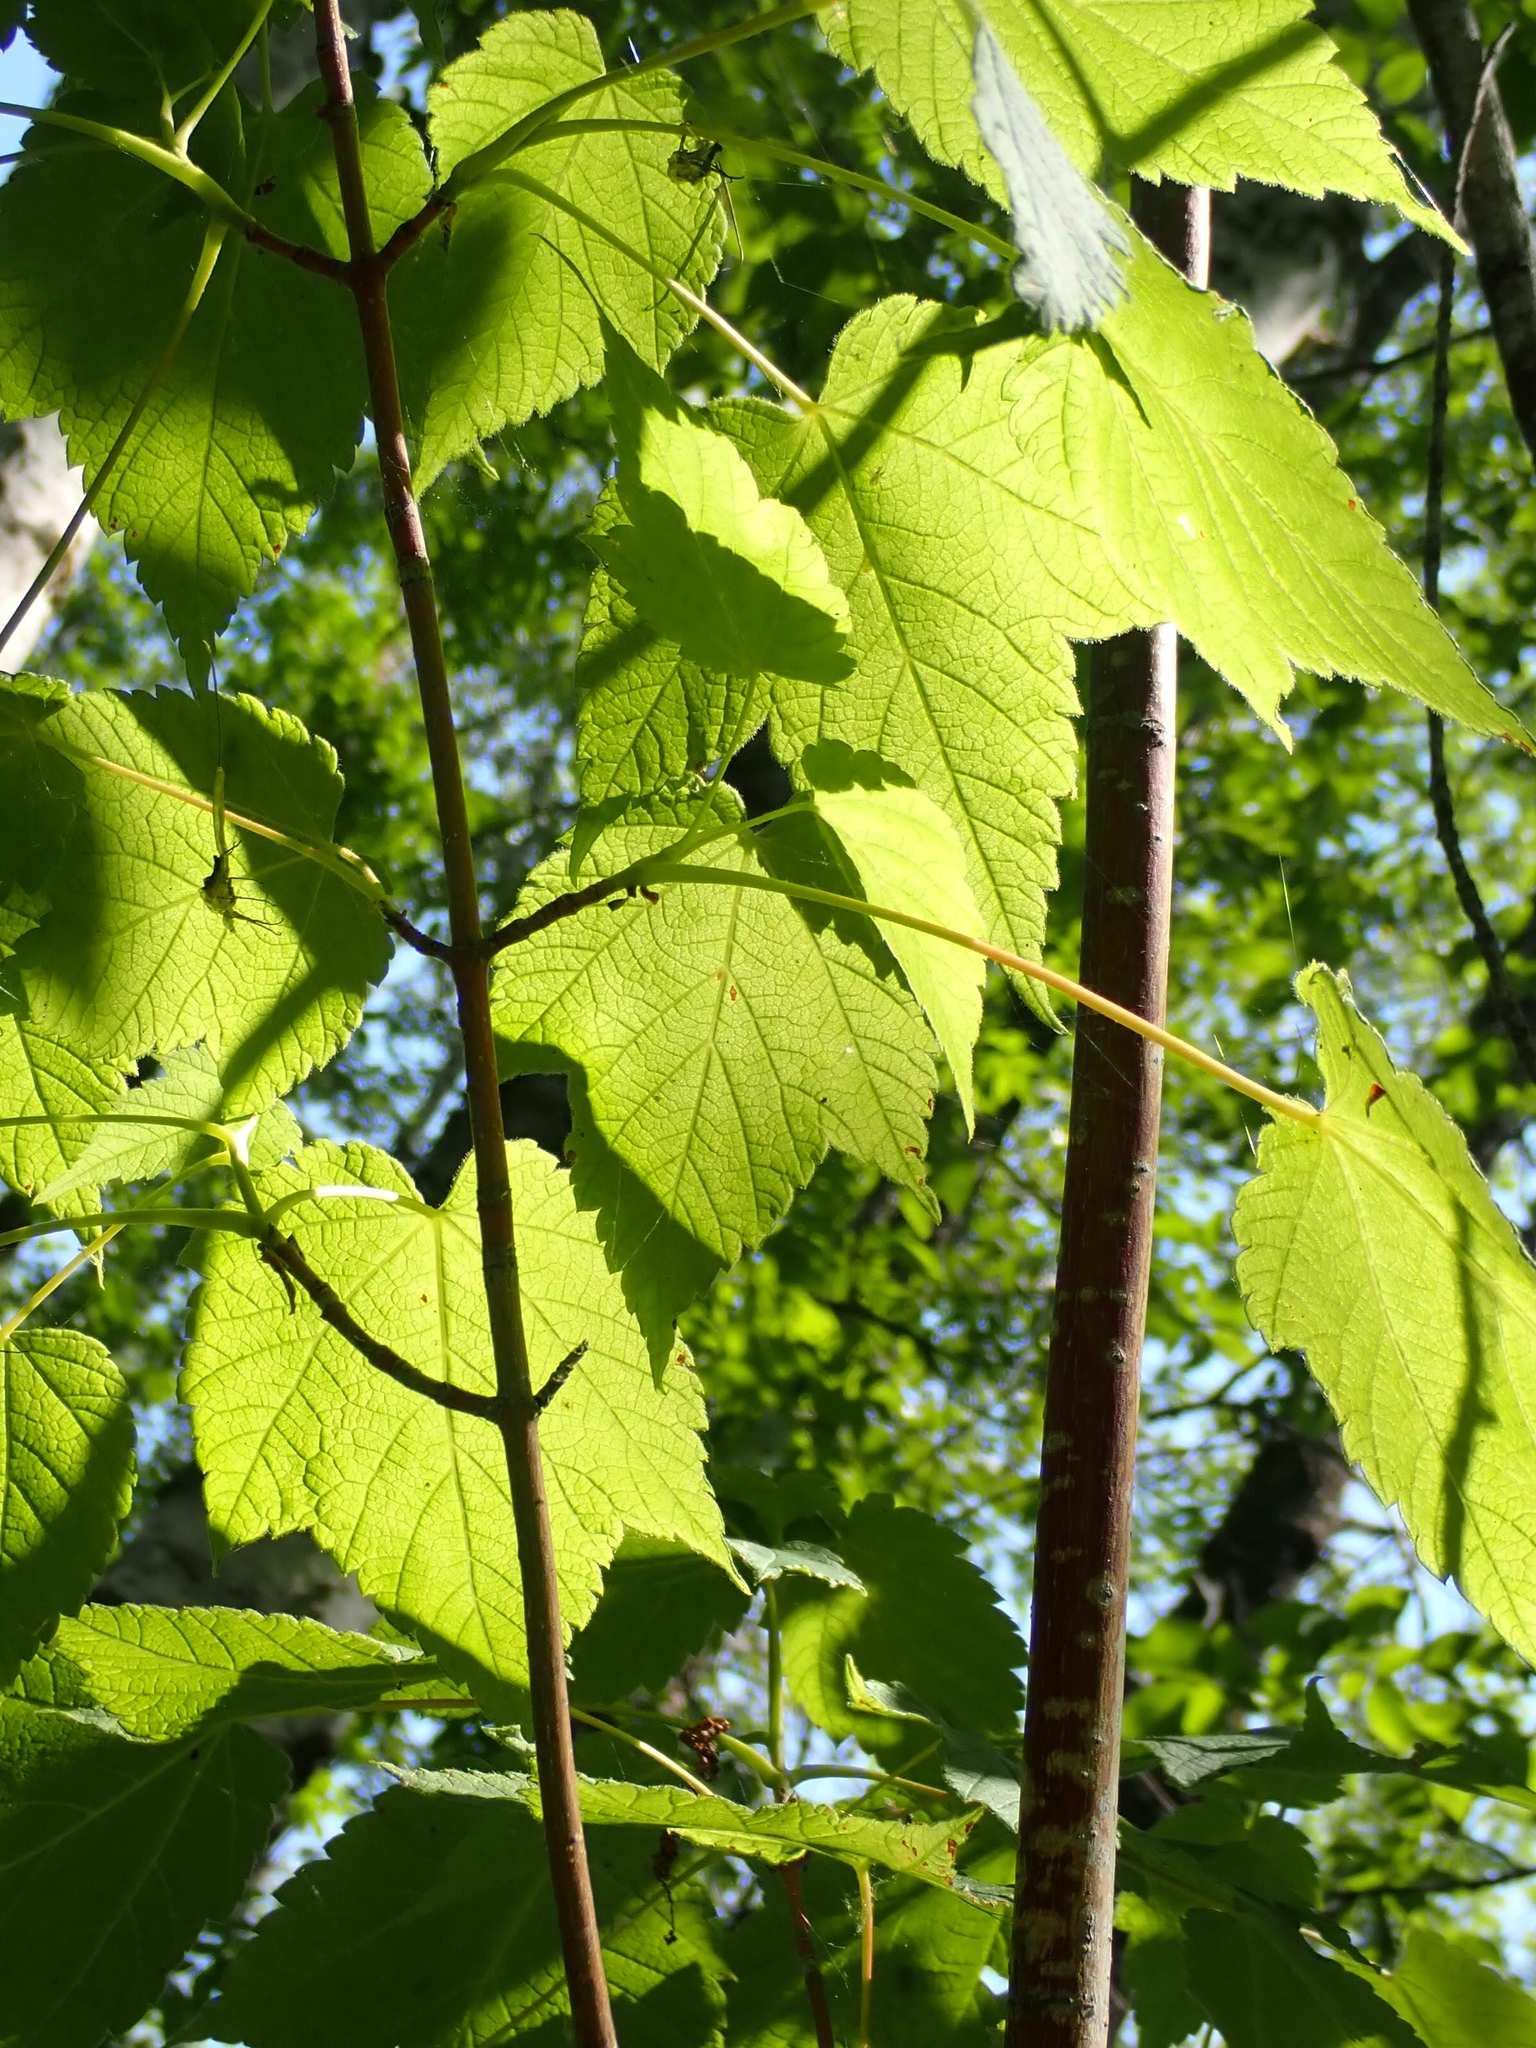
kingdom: Plantae
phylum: Tracheophyta
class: Magnoliopsida
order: Sapindales
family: Sapindaceae
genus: Acer
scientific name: Acer spicatum
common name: Mountain maple
